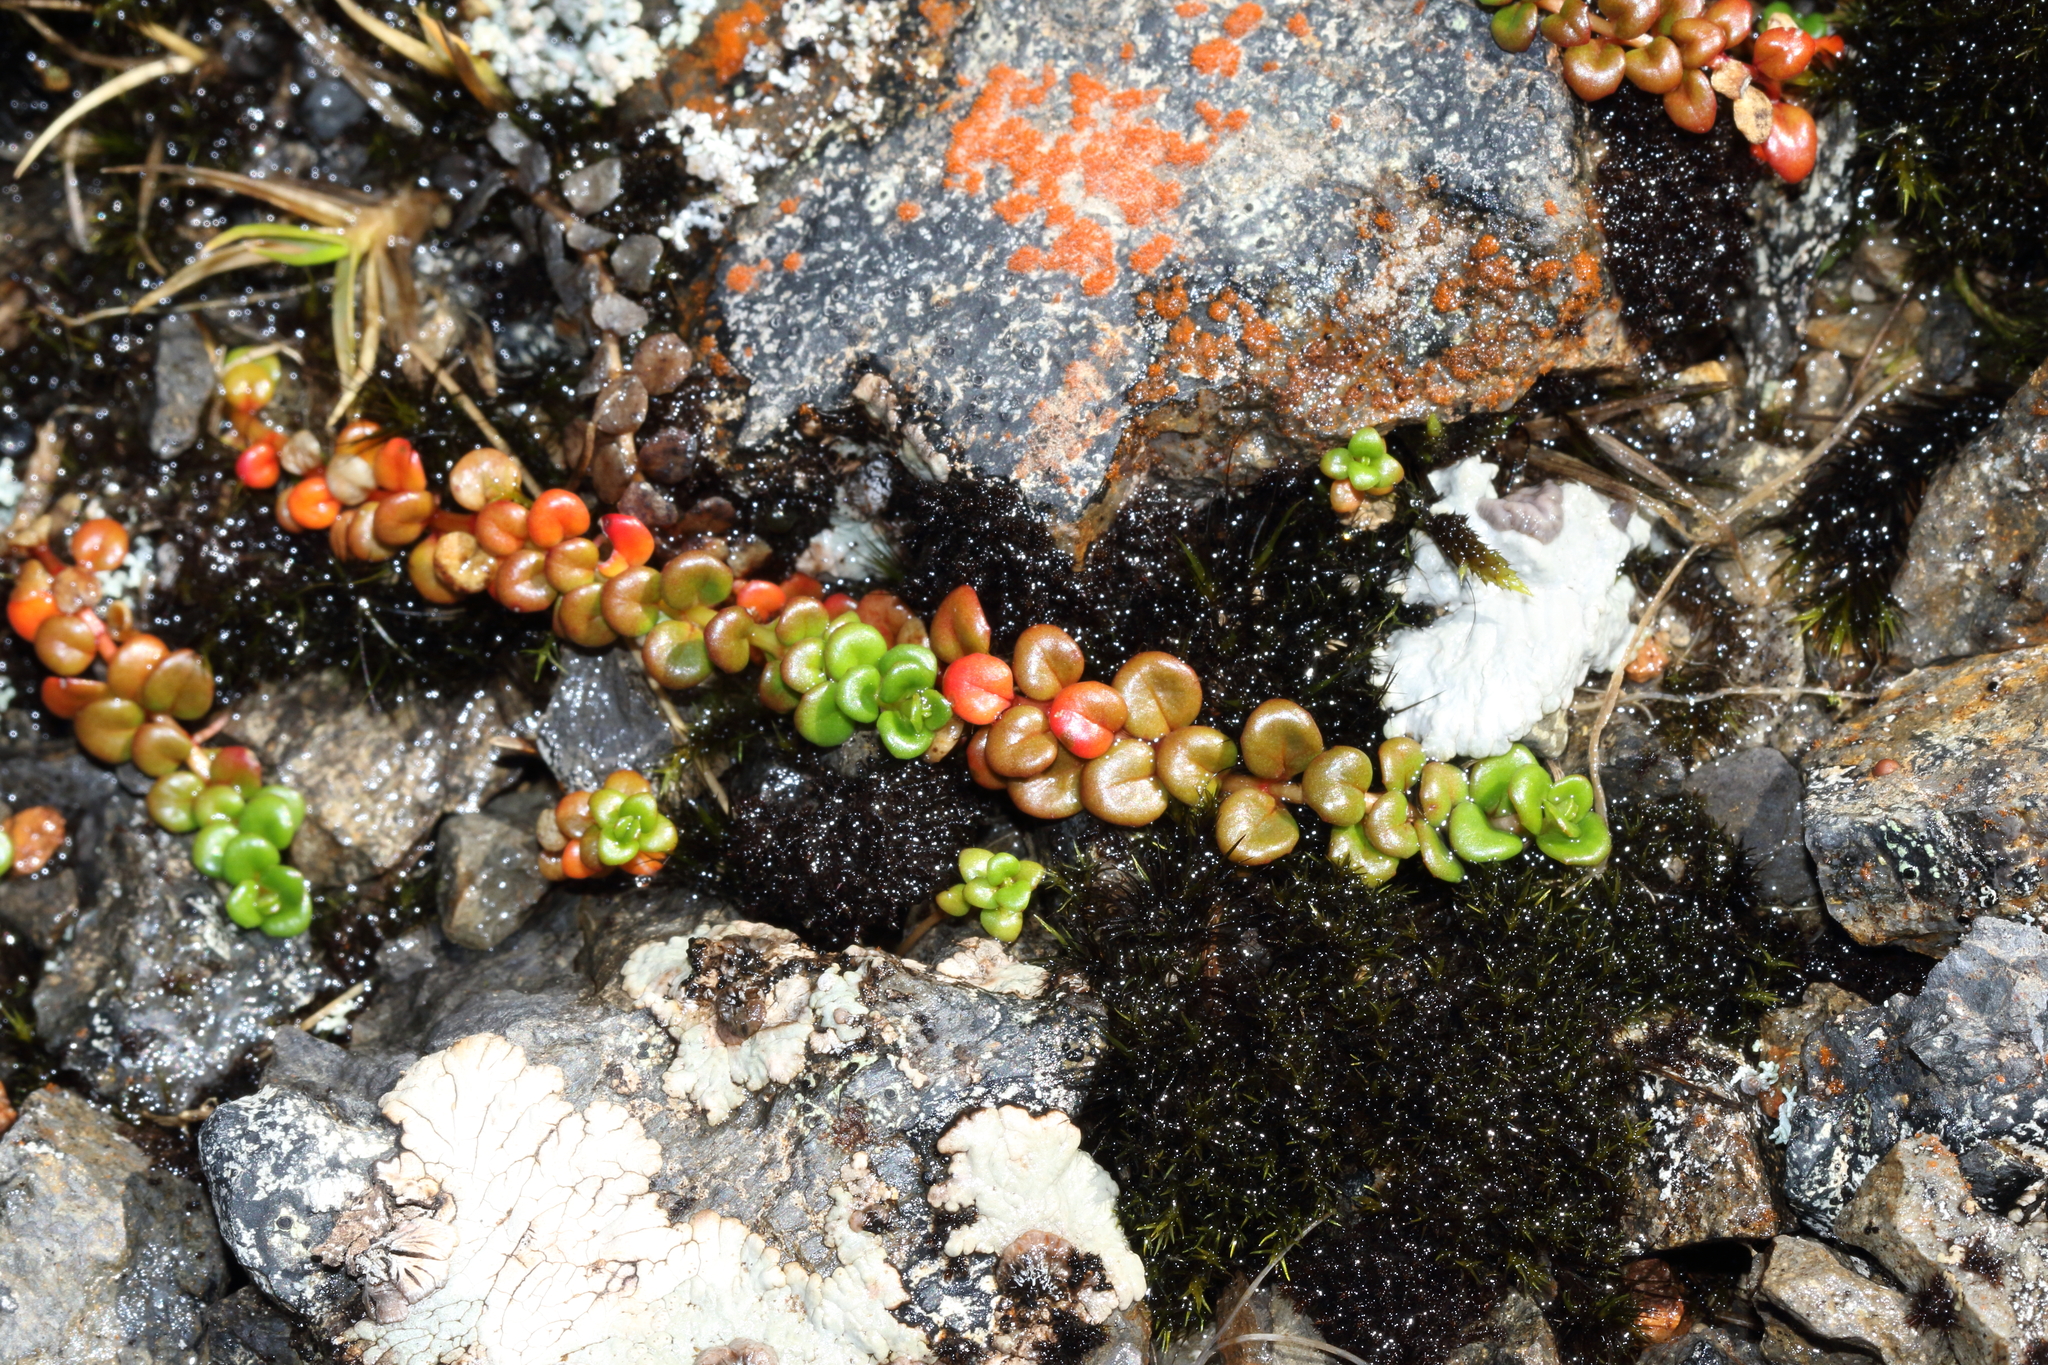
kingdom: Plantae
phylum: Tracheophyta
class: Magnoliopsida
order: Myrtales
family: Onagraceae
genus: Epilobium
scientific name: Epilobium pernitens
